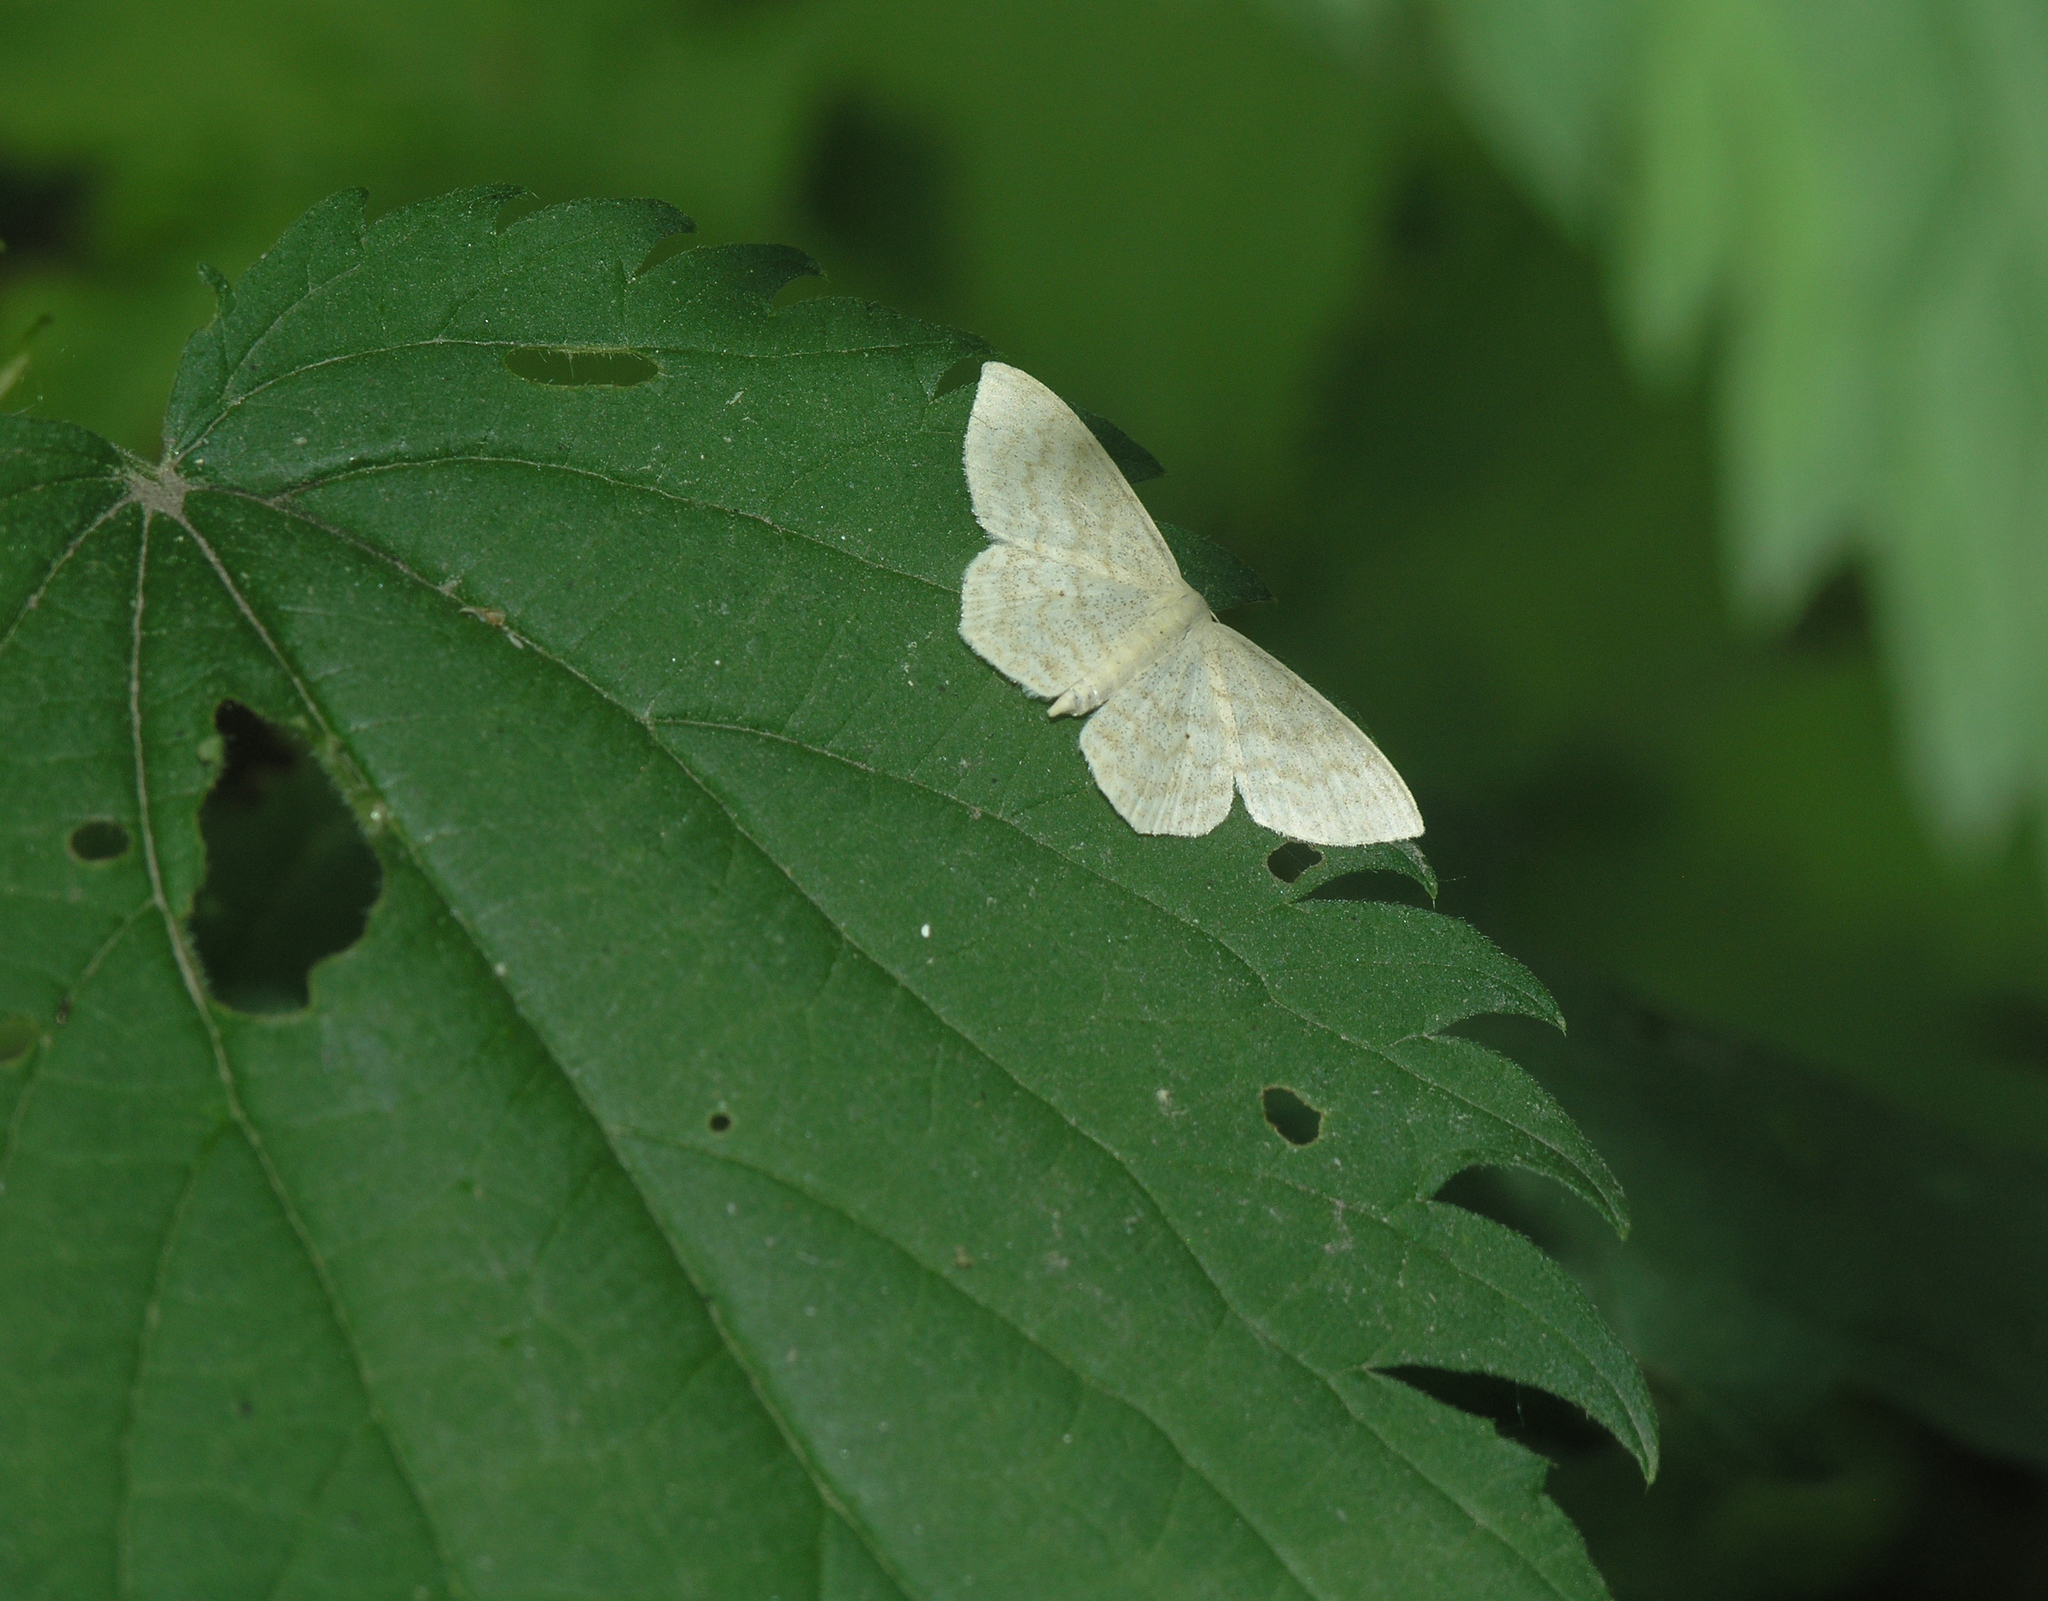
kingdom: Animalia
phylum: Arthropoda
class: Insecta
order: Lepidoptera
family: Geometridae
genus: Scopula
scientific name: Scopula floslactata
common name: Cream wave
